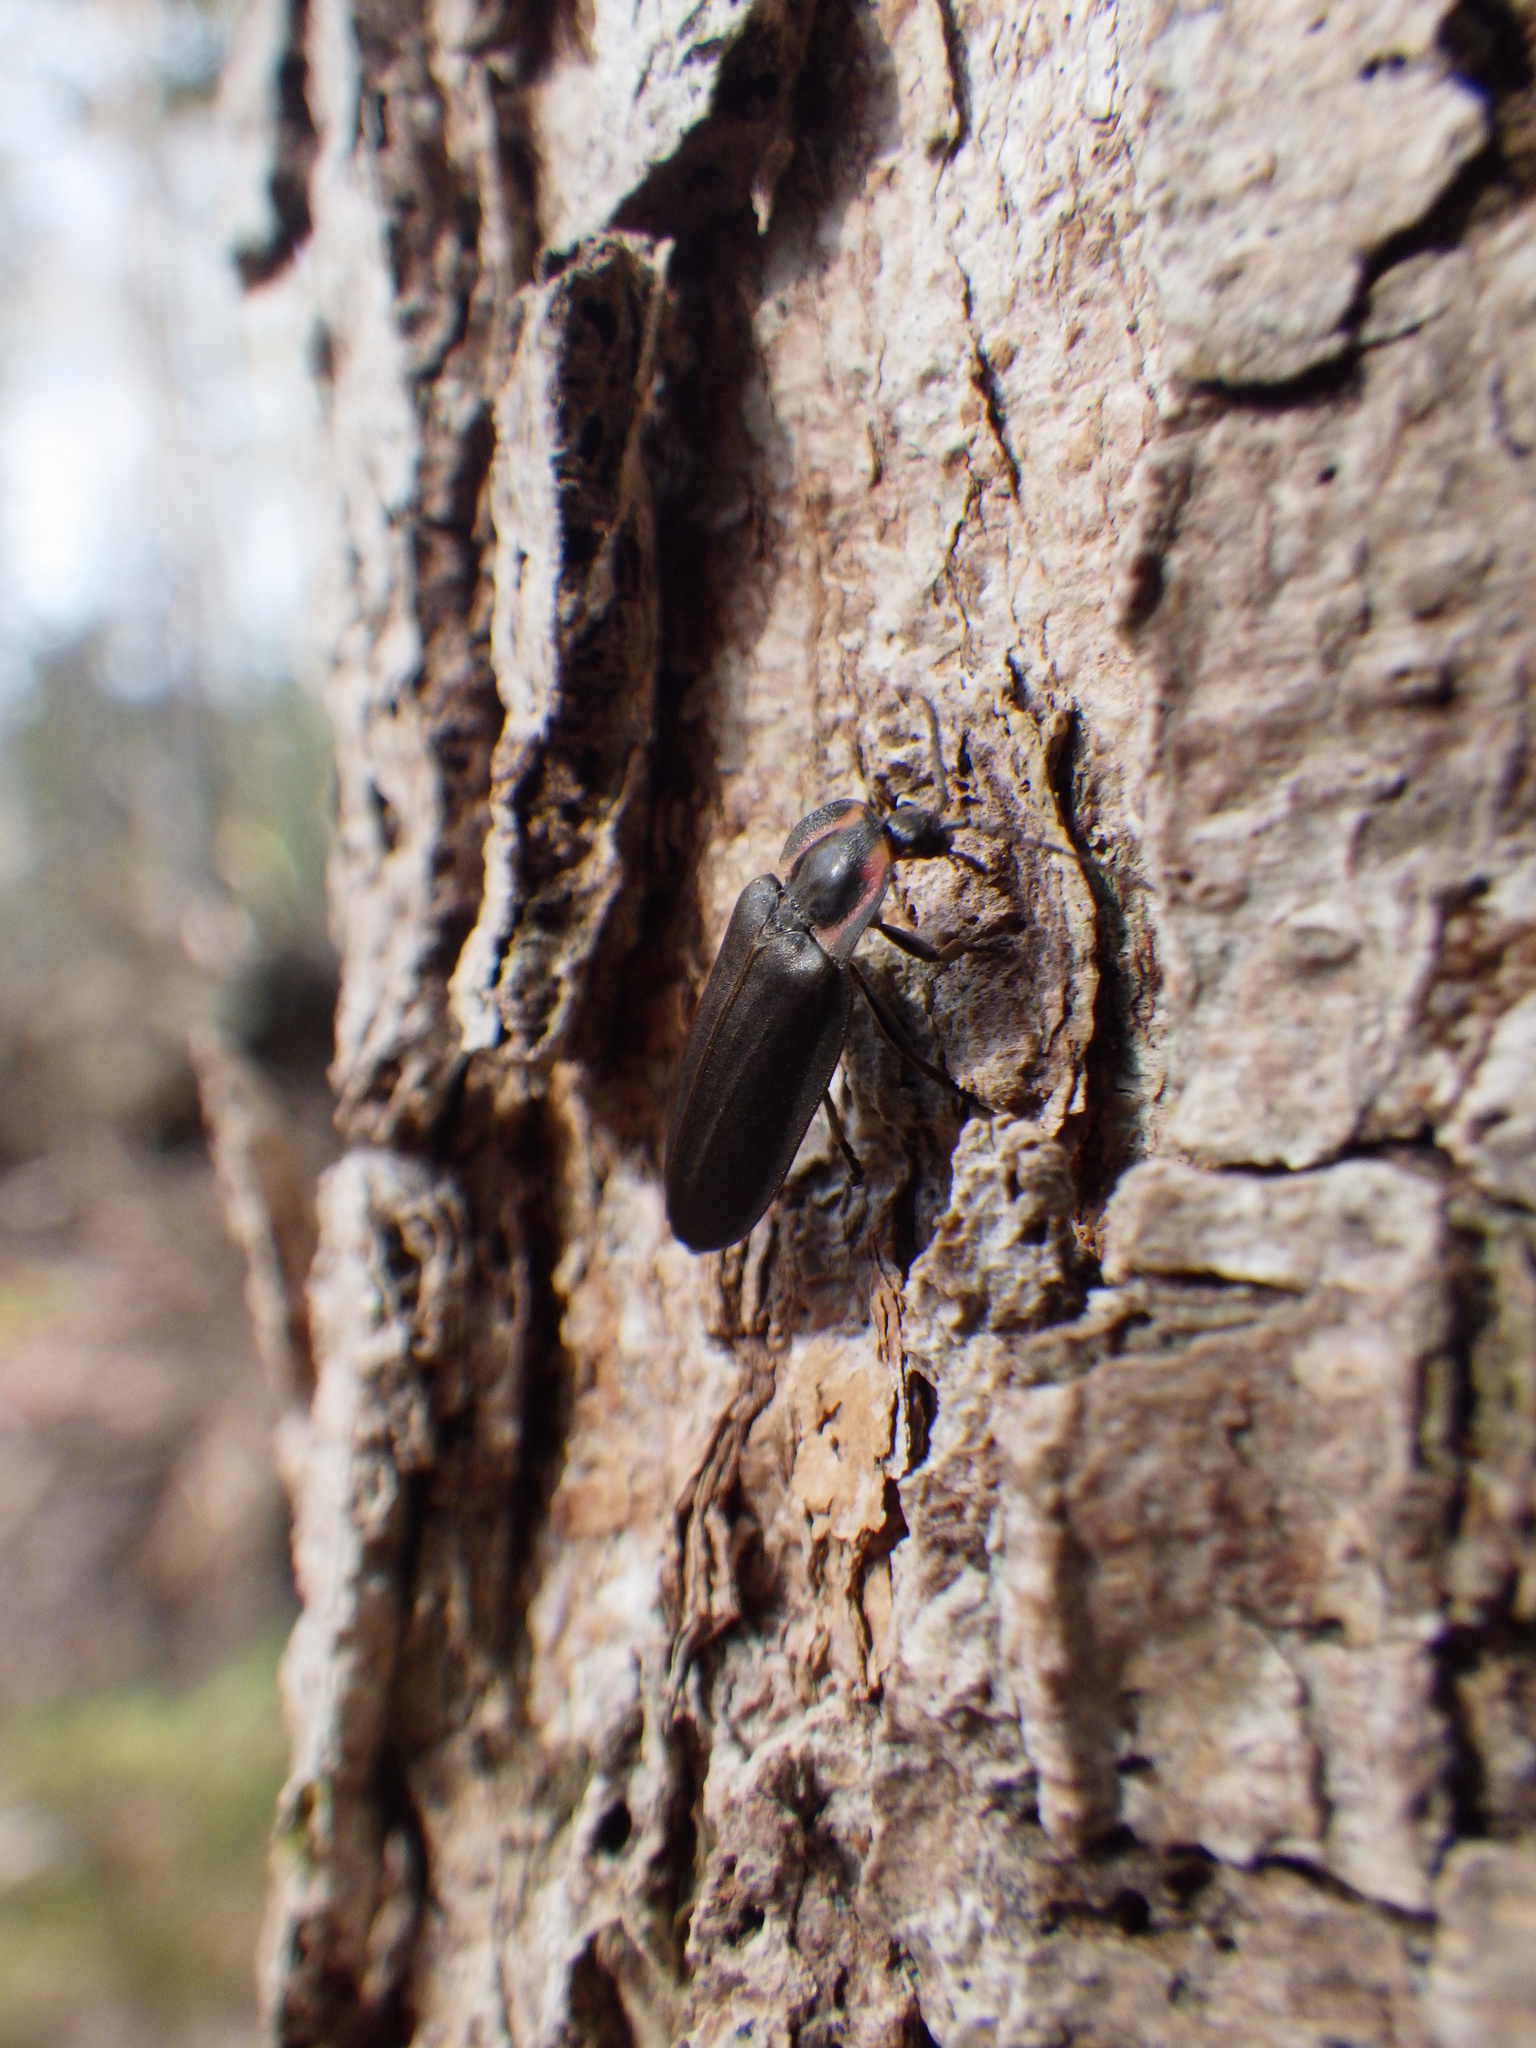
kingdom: Animalia
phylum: Arthropoda
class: Insecta
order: Coleoptera
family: Lampyridae
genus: Photinus
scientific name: Photinus corrusca
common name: Winter firefly
